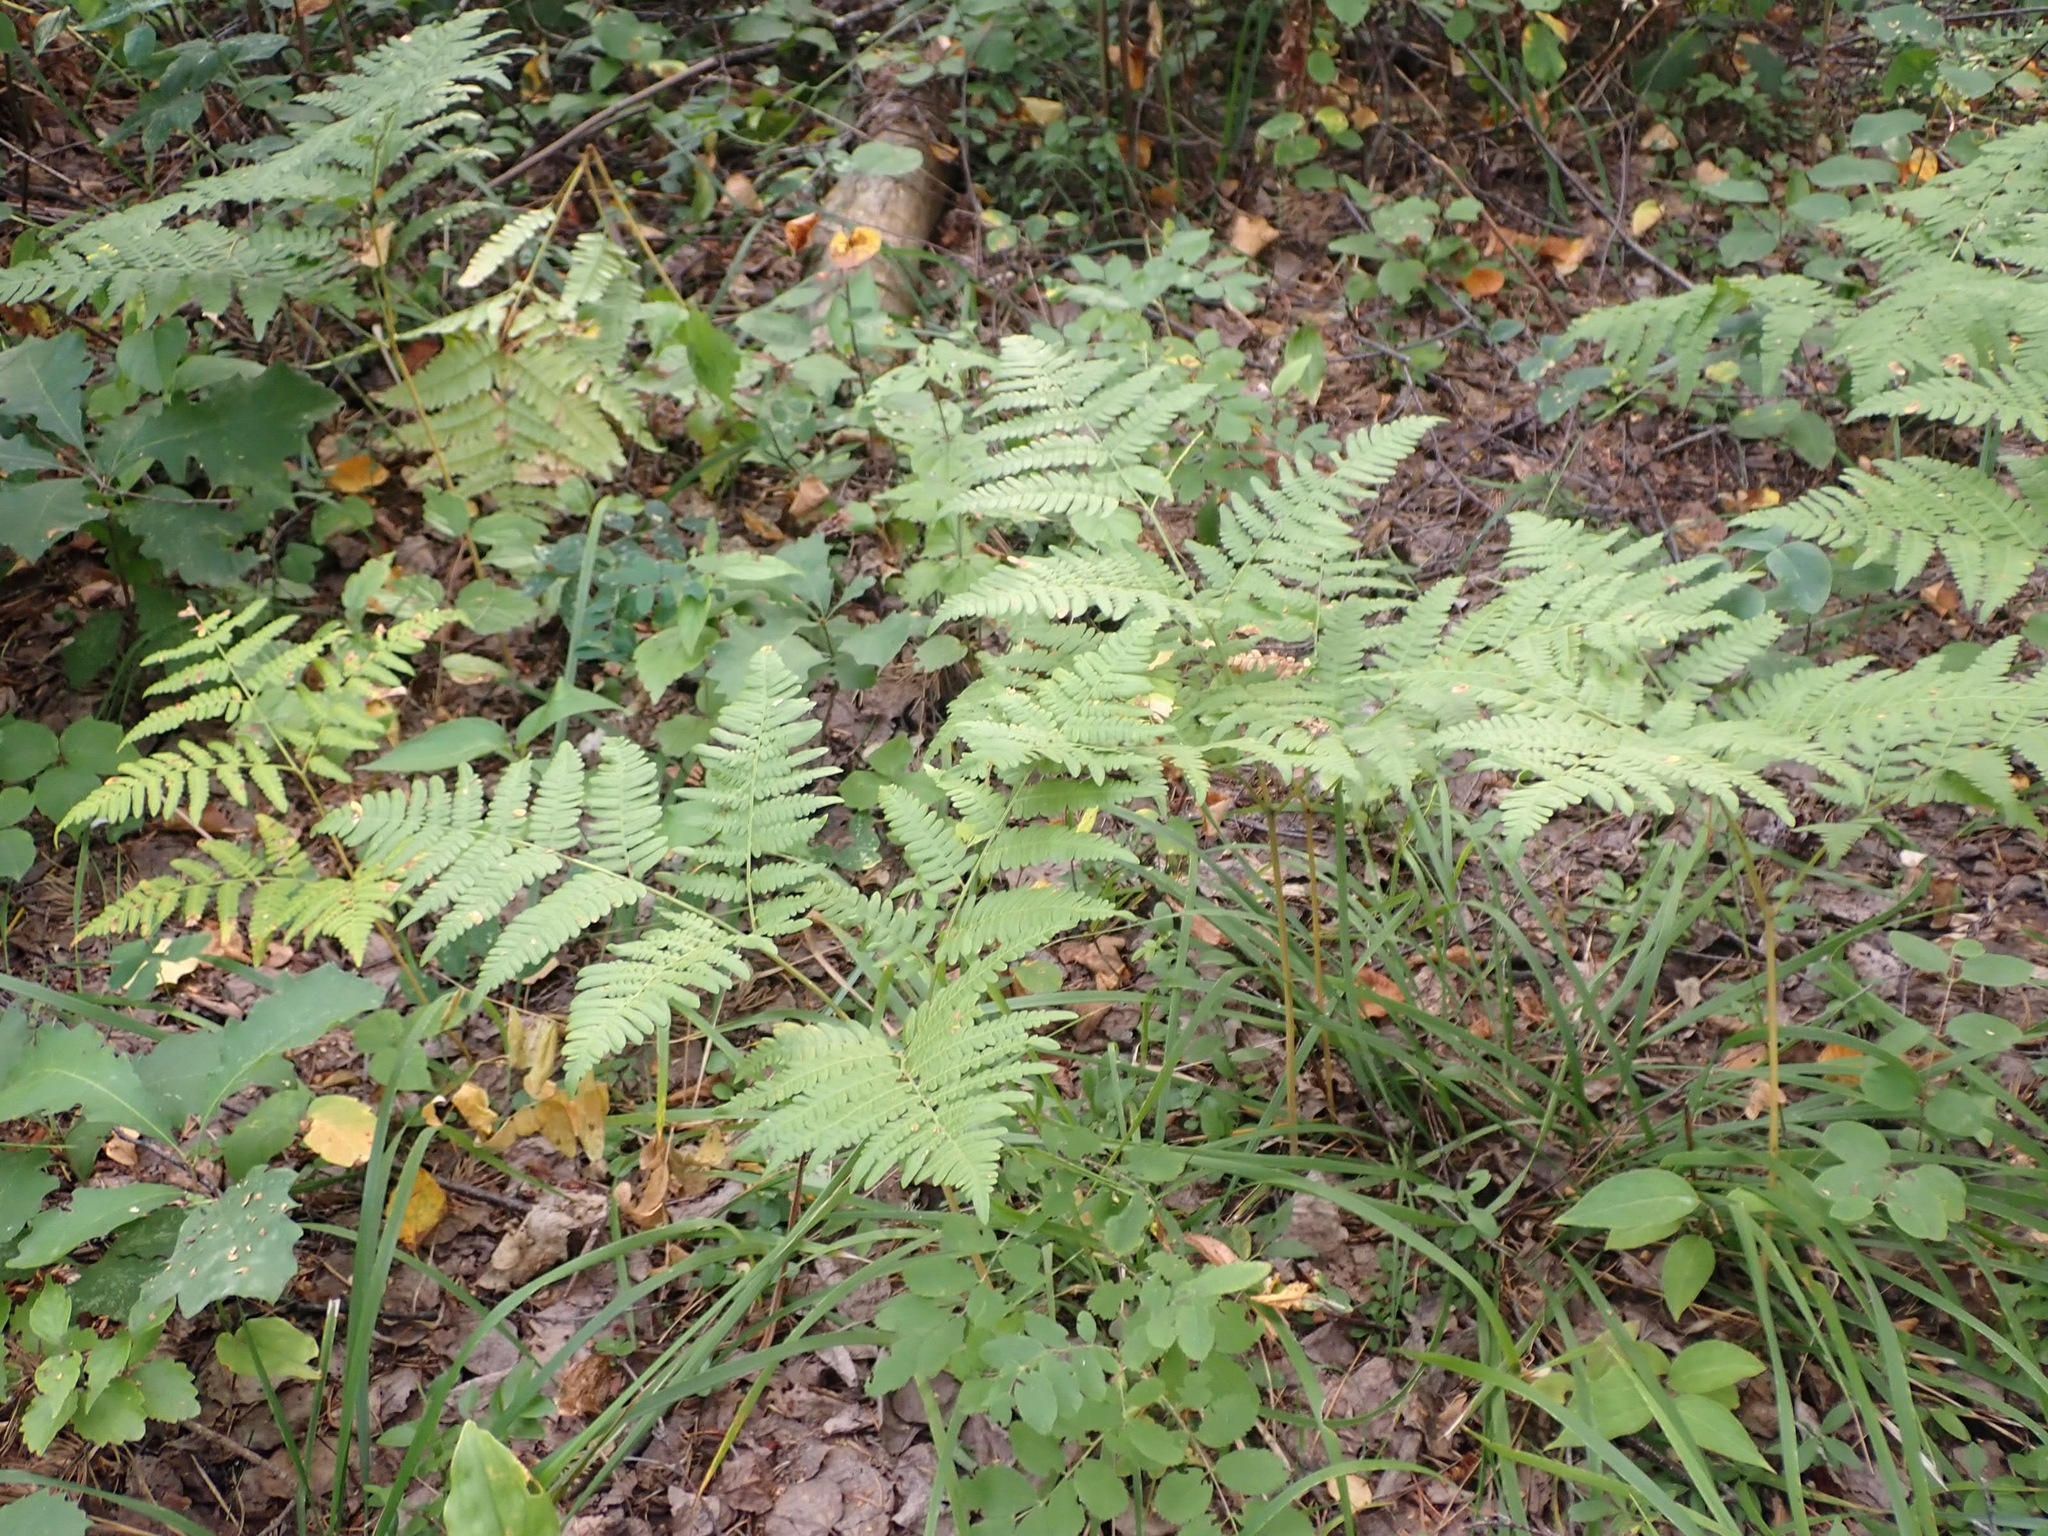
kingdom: Plantae
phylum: Tracheophyta
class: Polypodiopsida
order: Polypodiales
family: Dennstaedtiaceae
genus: Pteridium
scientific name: Pteridium aquilinum
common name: Bracken
